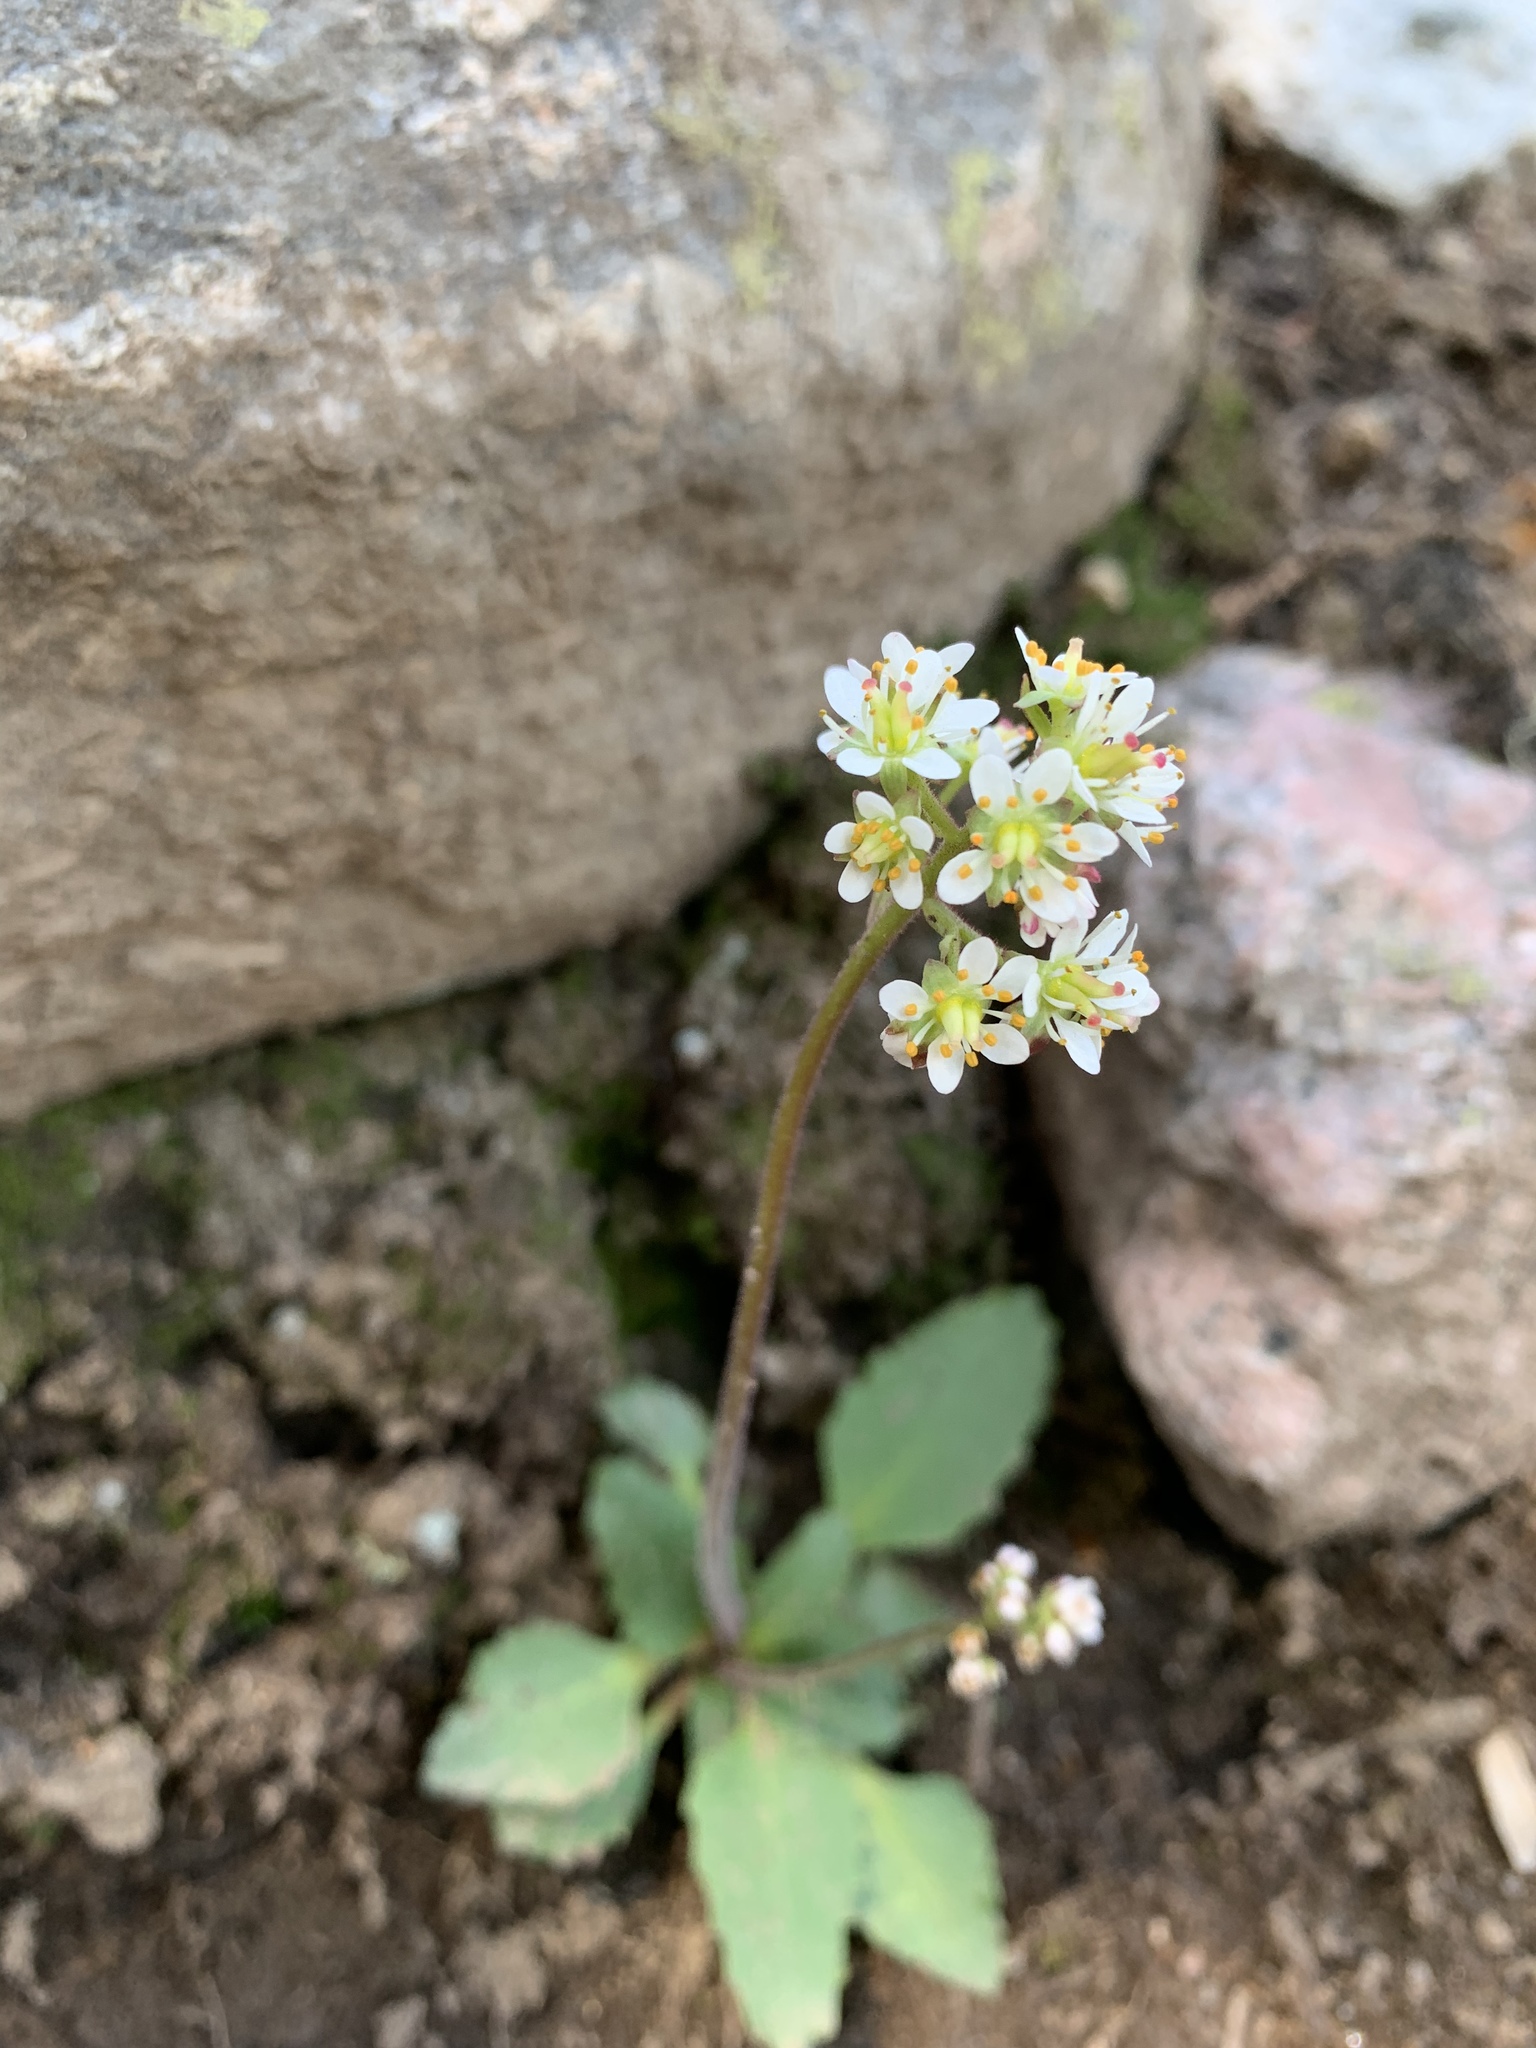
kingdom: Plantae
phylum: Tracheophyta
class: Magnoliopsida
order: Saxifragales
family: Saxifragaceae
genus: Micranthes
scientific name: Micranthes occidentalis
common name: Alberta saxifrage
